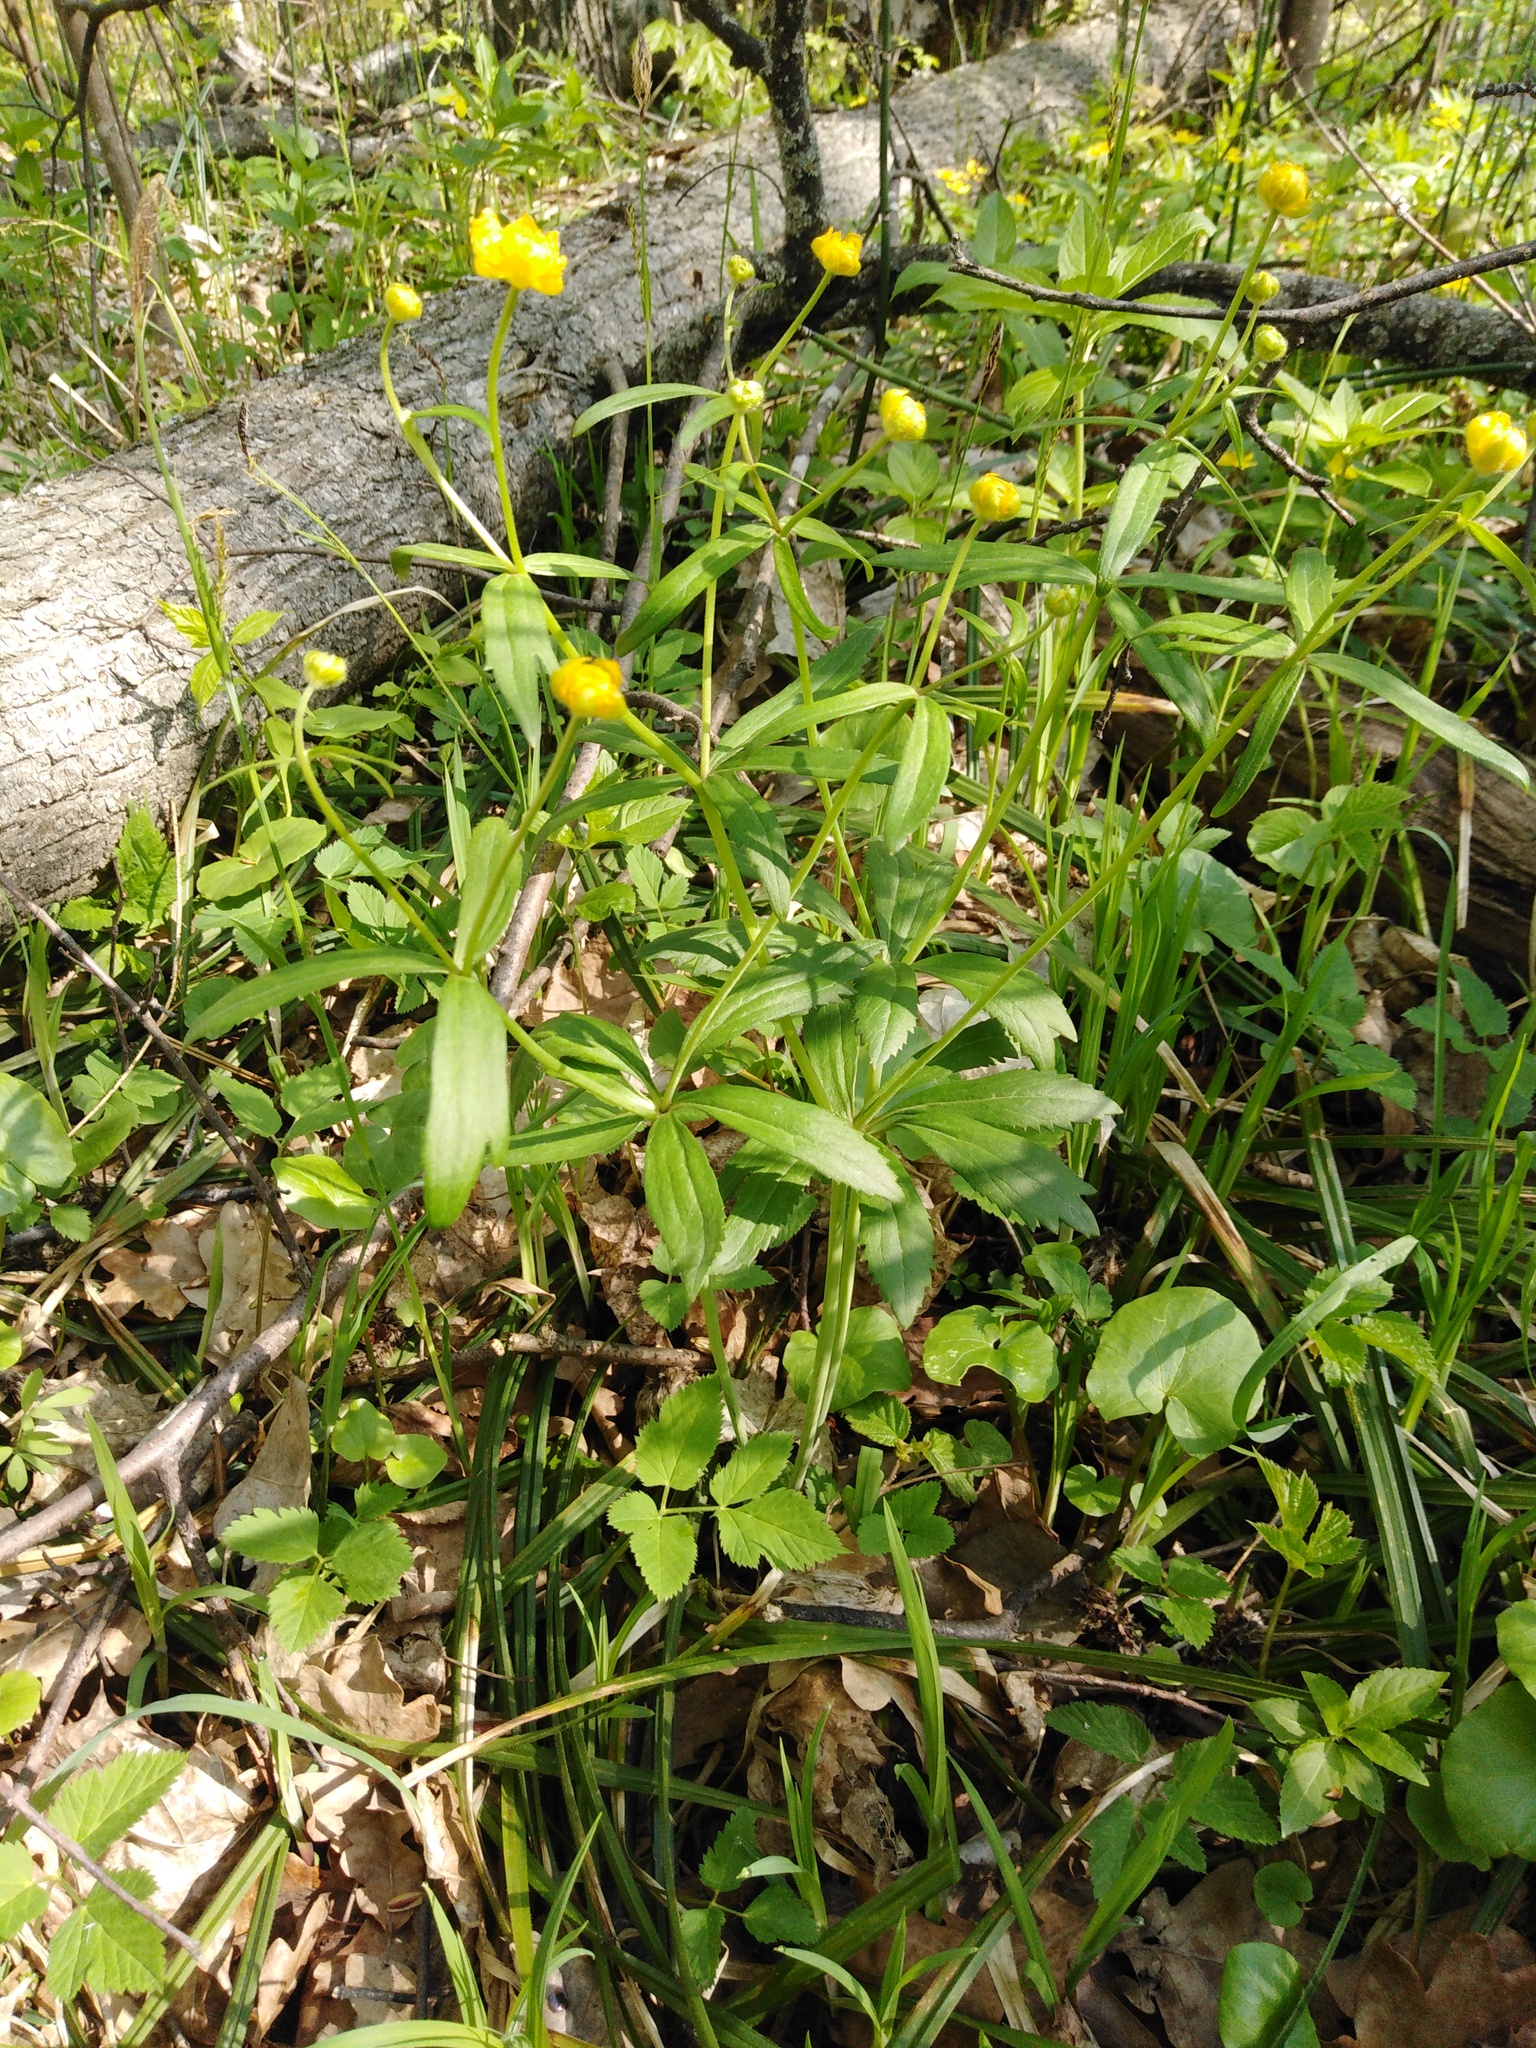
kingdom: Plantae
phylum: Tracheophyta
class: Magnoliopsida
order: Ranunculales
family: Ranunculaceae
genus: Ranunculus
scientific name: Ranunculus cassubicus
